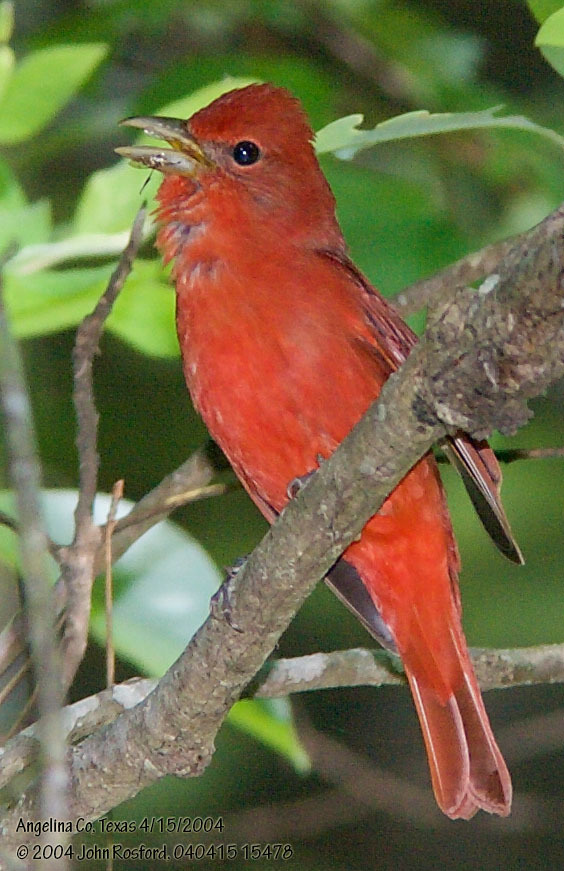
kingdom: Animalia
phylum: Chordata
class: Aves
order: Passeriformes
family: Cardinalidae
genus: Piranga
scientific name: Piranga rubra
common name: Summer tanager
